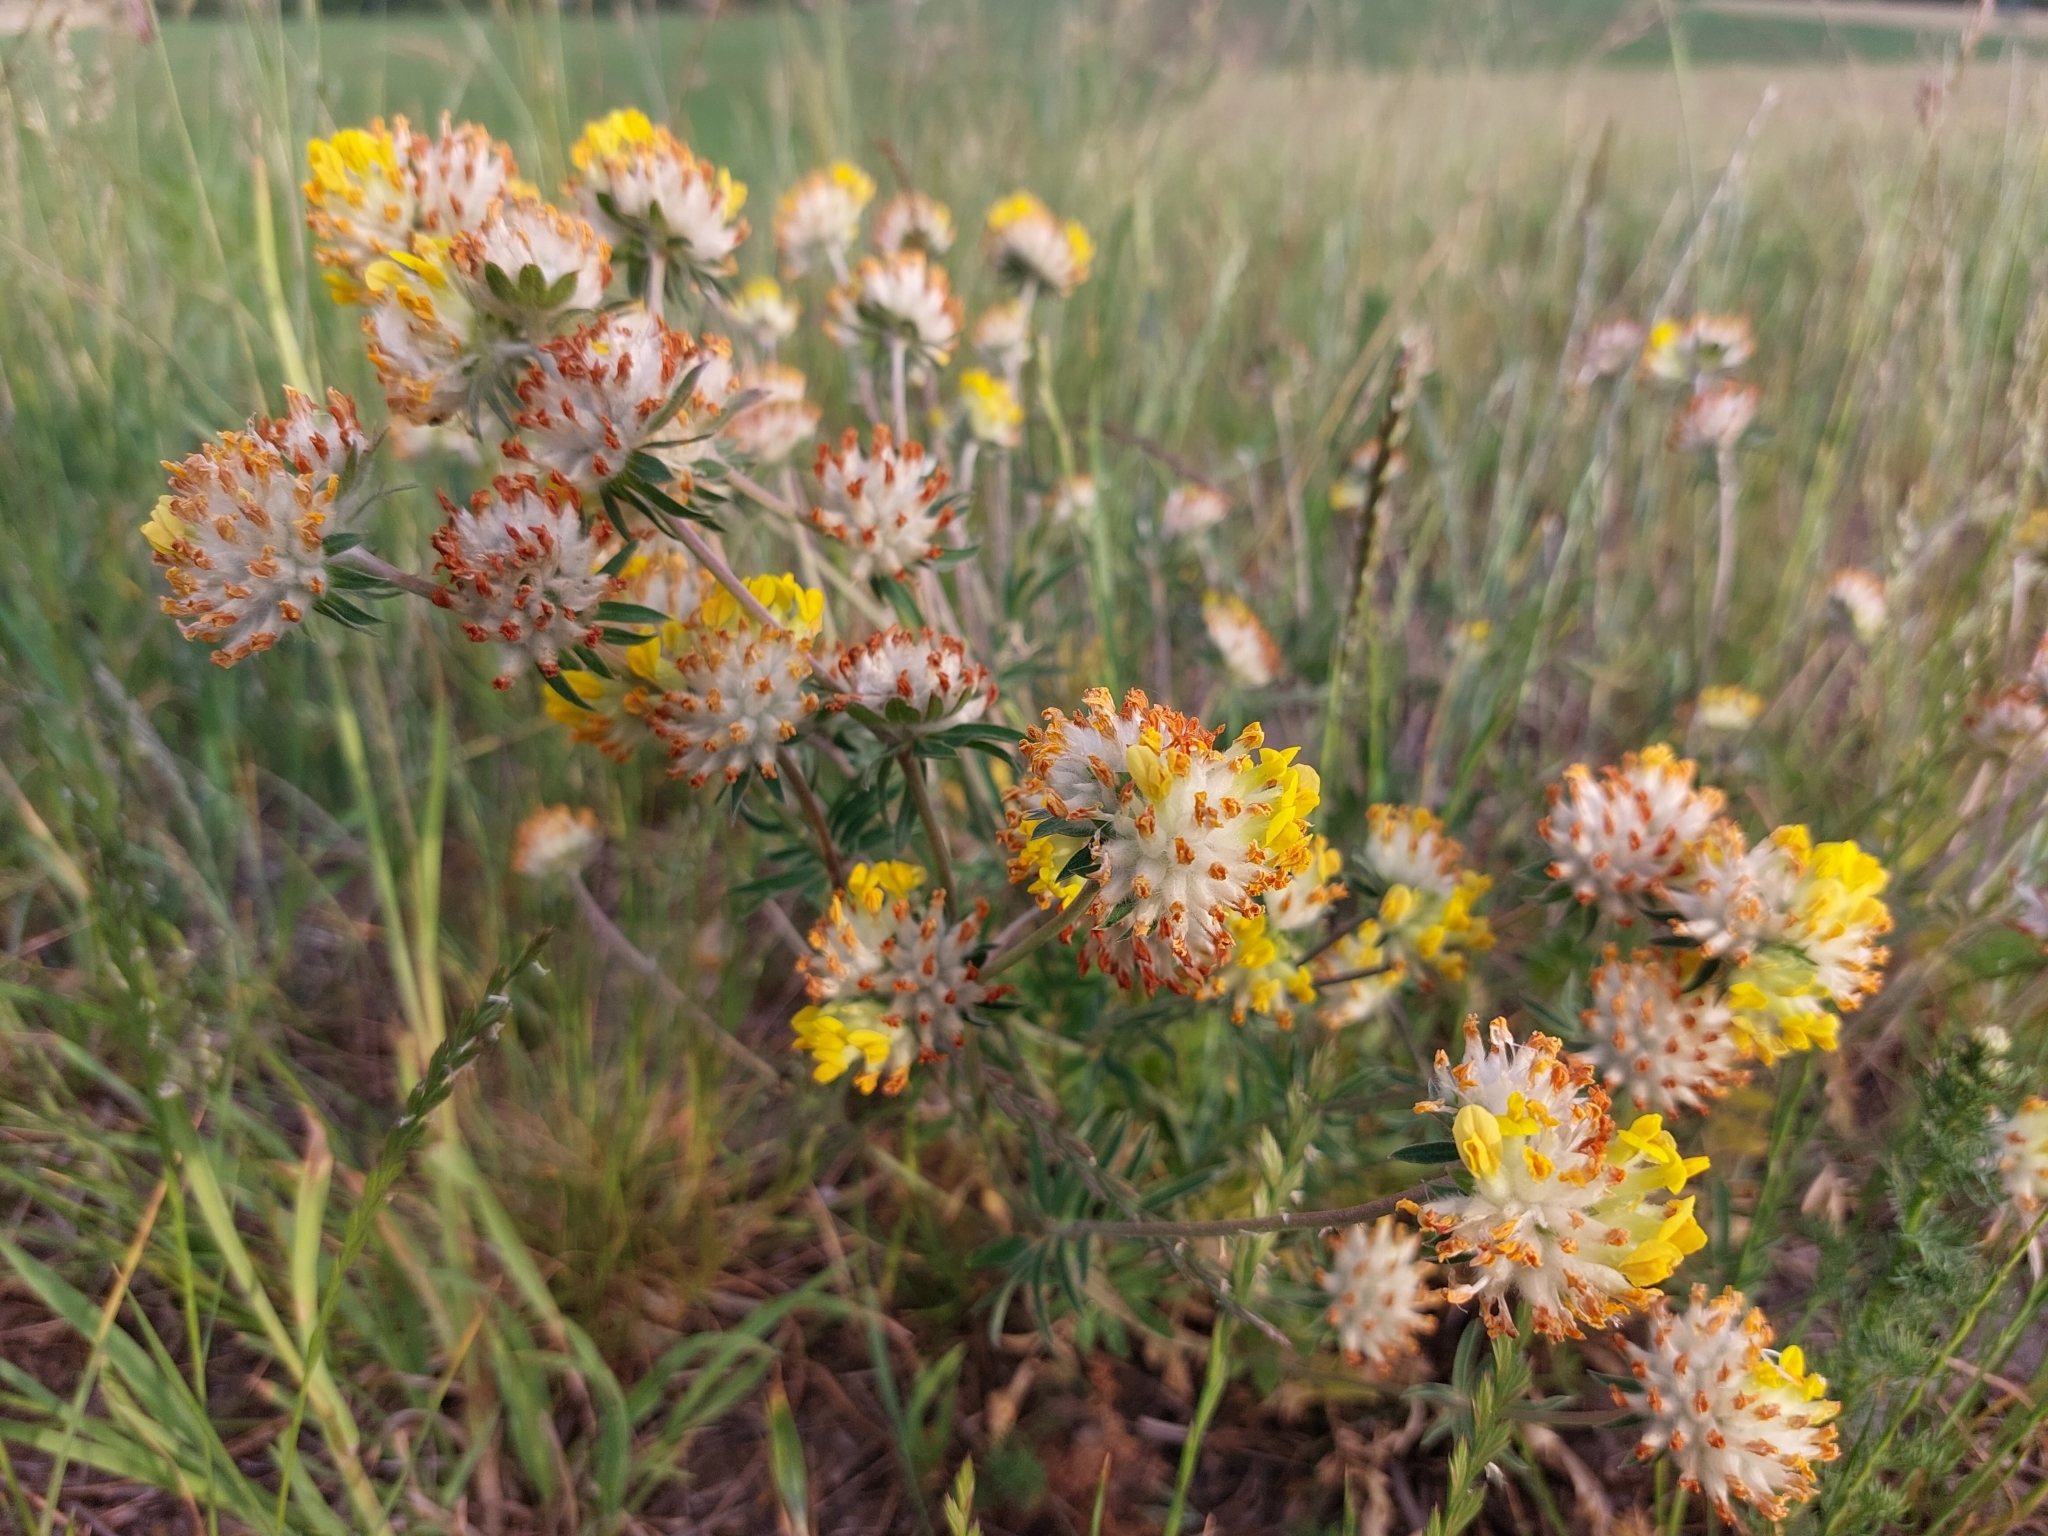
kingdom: Plantae
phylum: Tracheophyta
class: Magnoliopsida
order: Fabales
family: Fabaceae
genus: Anthyllis
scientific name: Anthyllis vulneraria
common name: Kidney vetch
